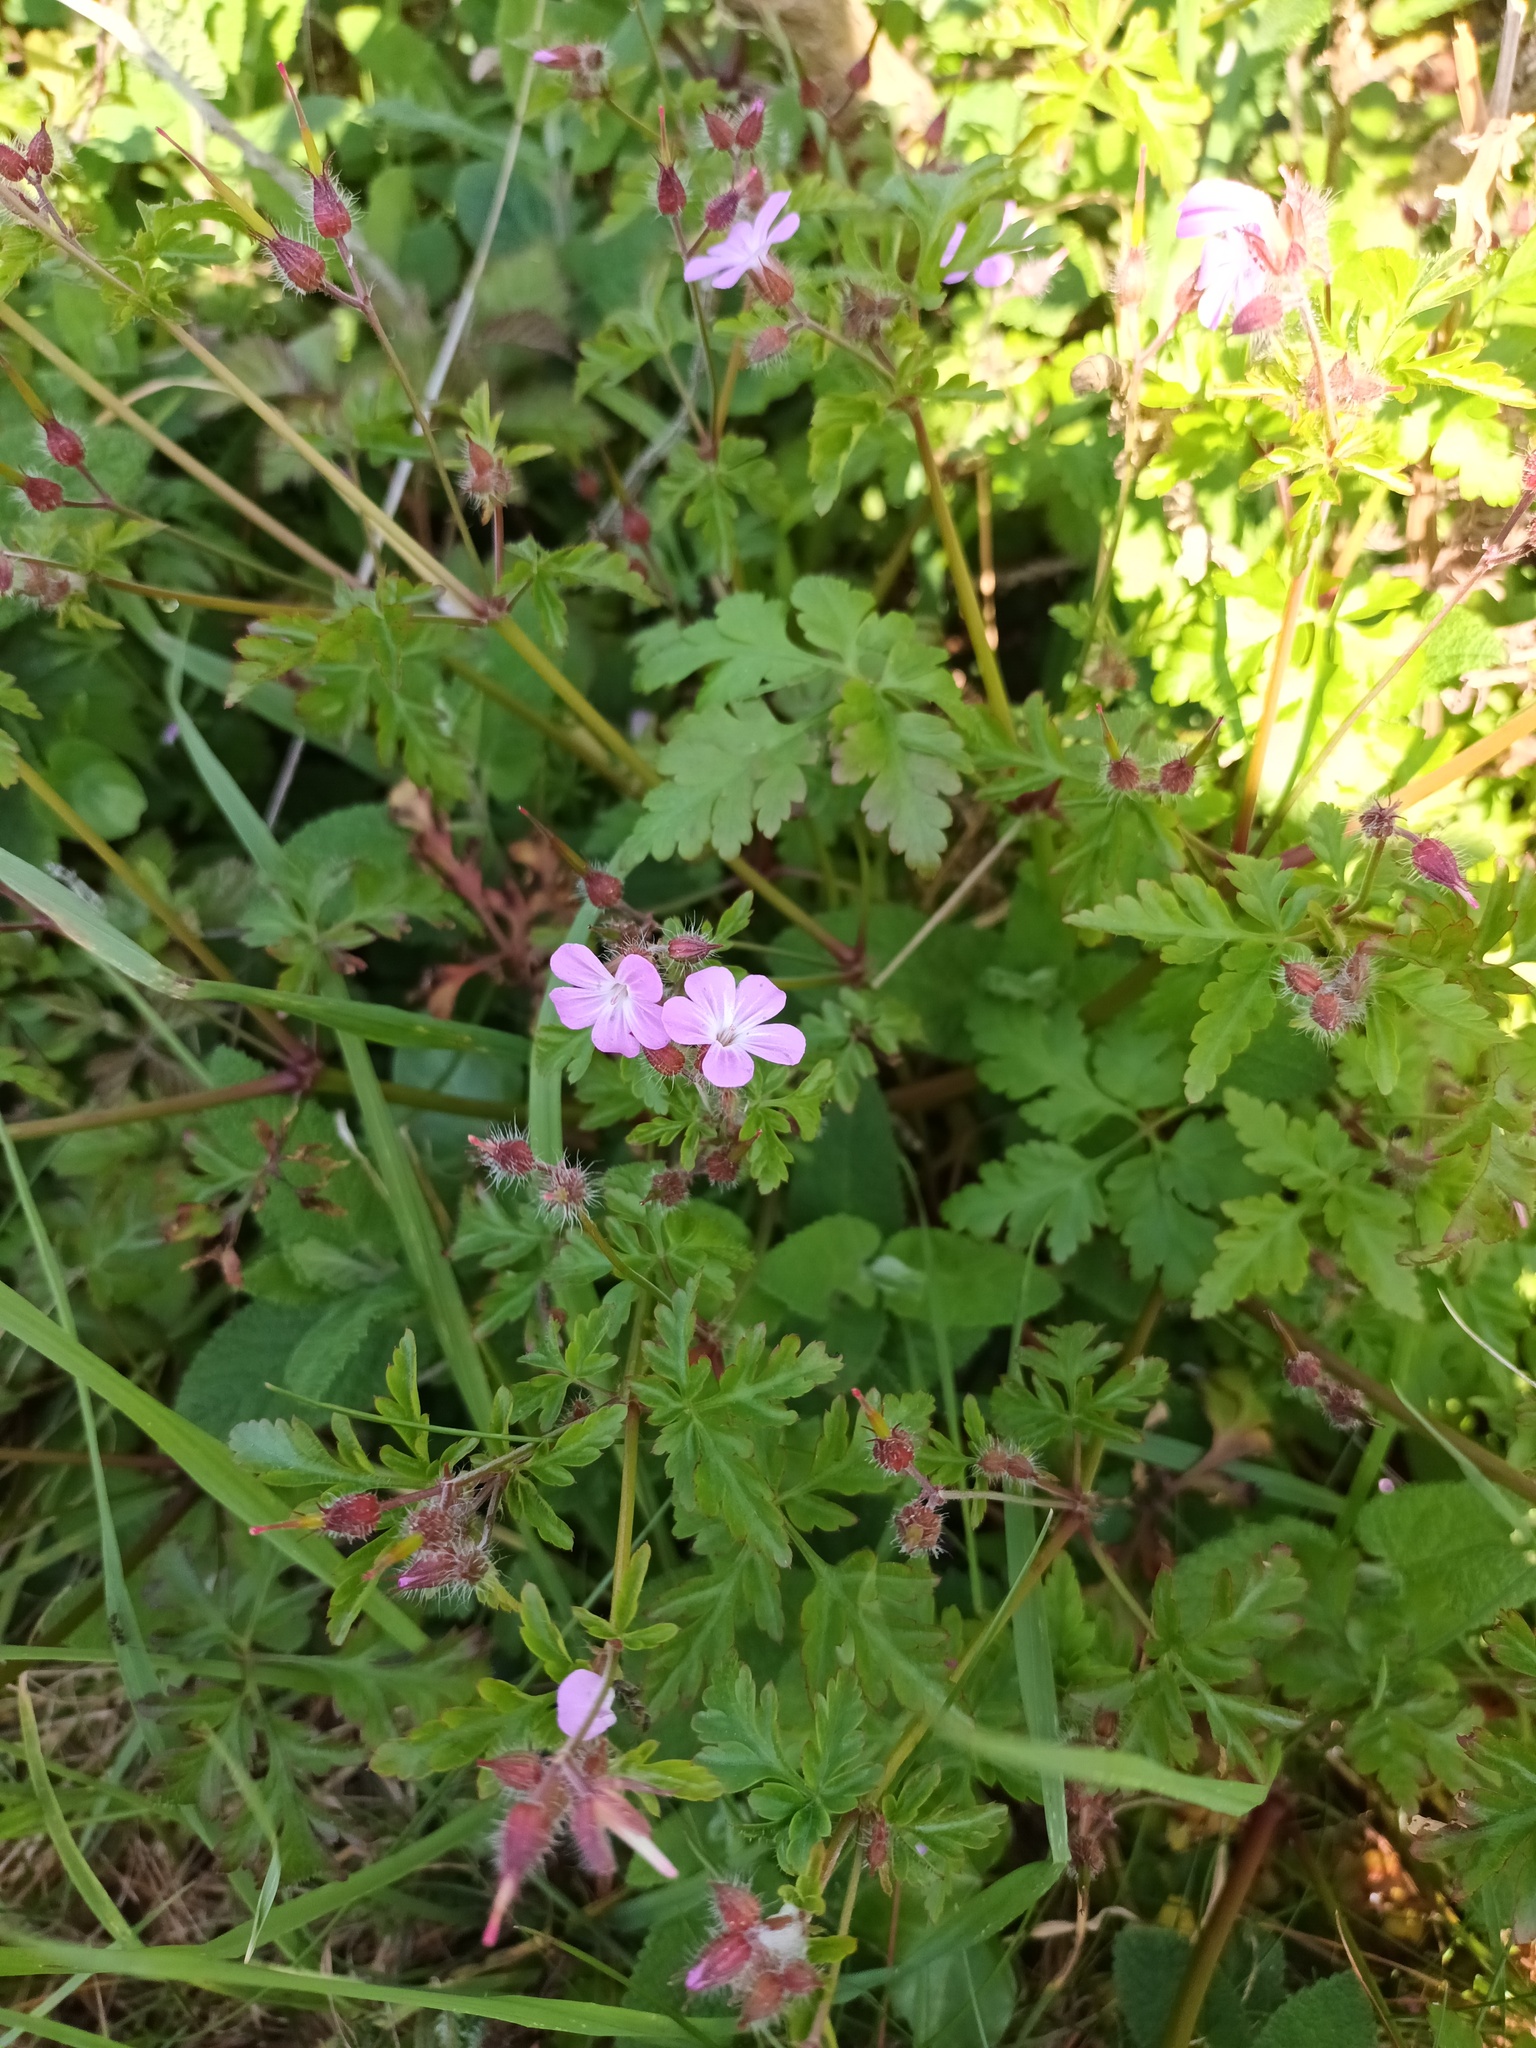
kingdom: Plantae
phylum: Tracheophyta
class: Magnoliopsida
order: Geraniales
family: Geraniaceae
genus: Geranium
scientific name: Geranium robertianum
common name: Herb-robert
